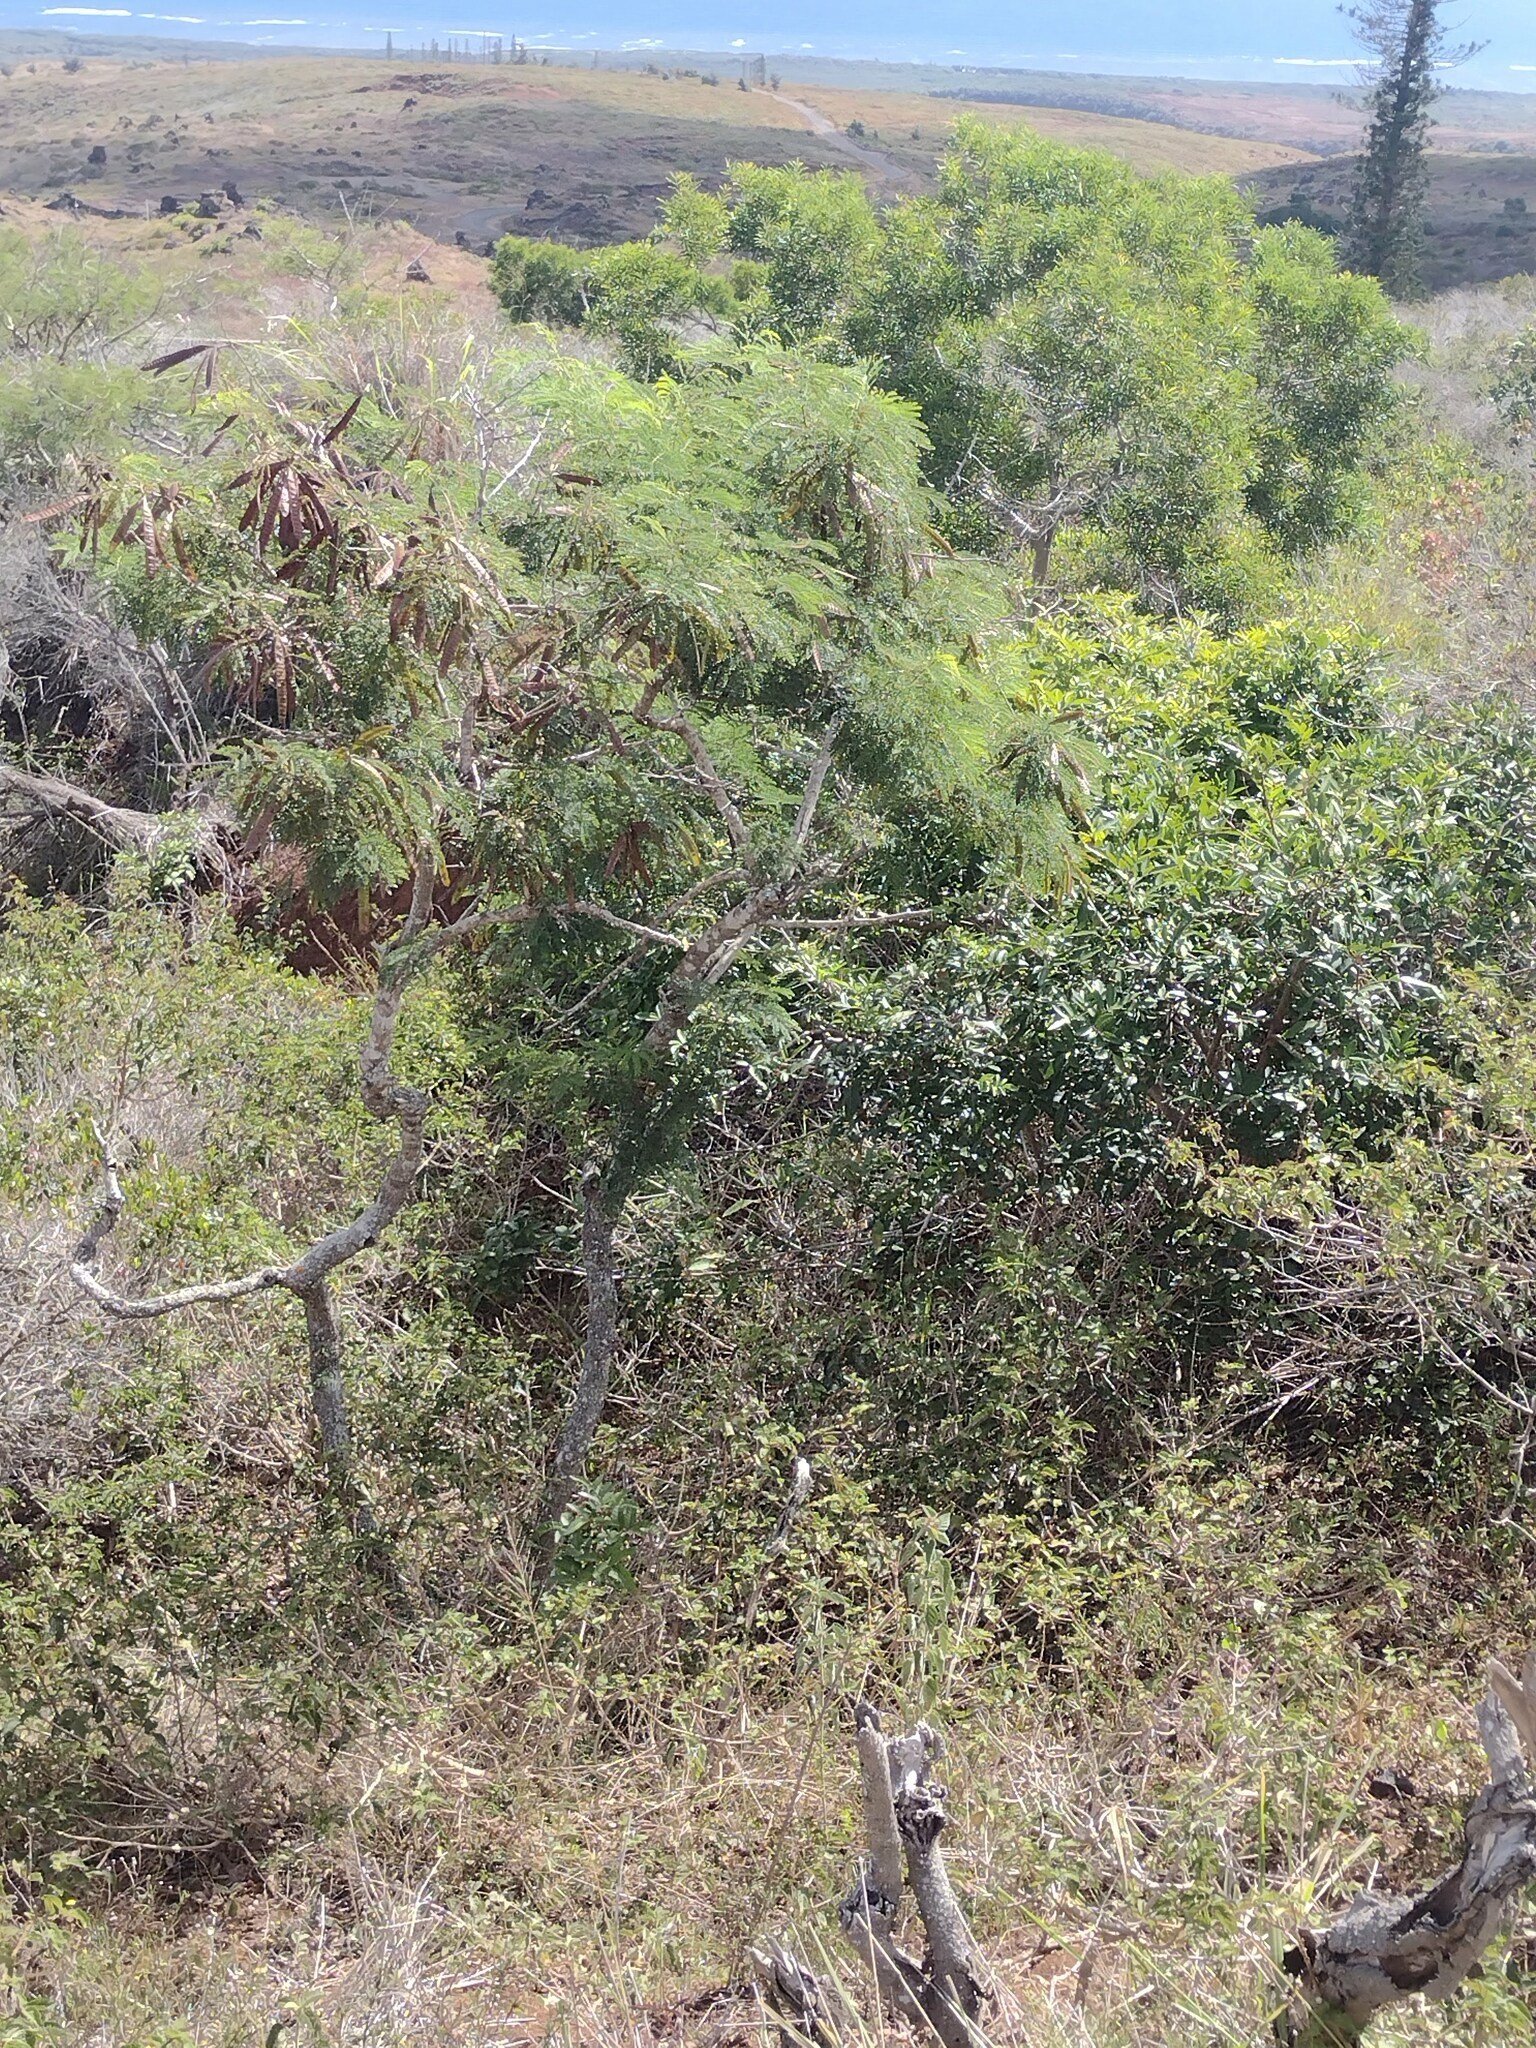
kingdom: Plantae
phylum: Tracheophyta
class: Magnoliopsida
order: Fabales
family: Fabaceae
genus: Leucaena
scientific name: Leucaena leucocephala
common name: White leadtree
